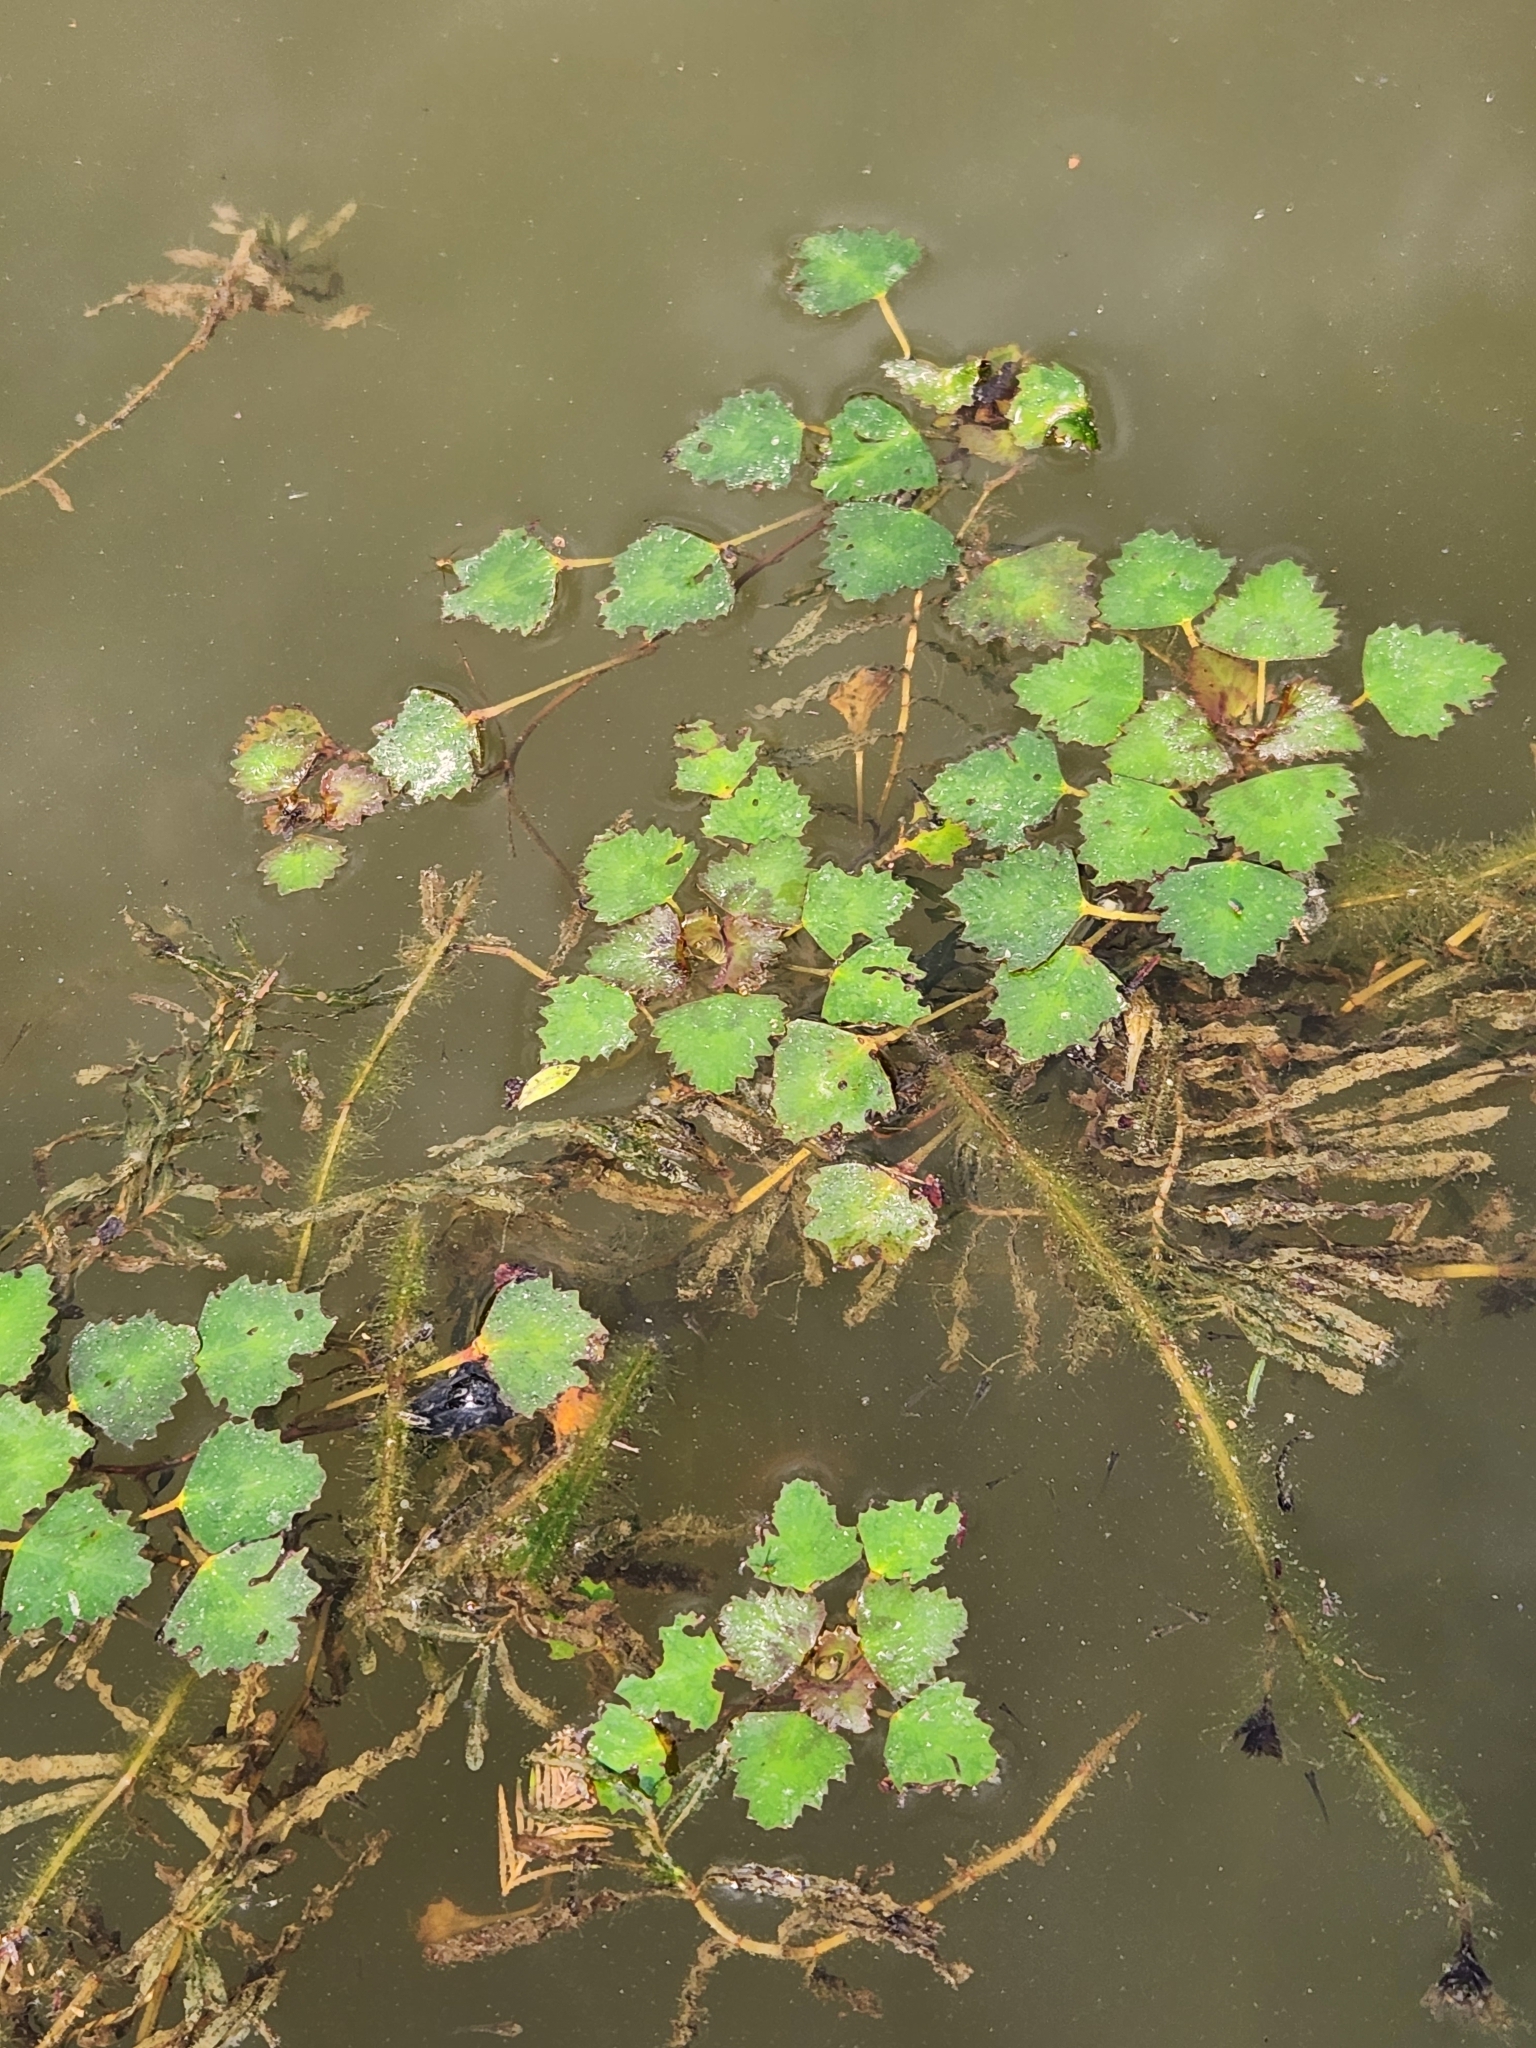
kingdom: Plantae
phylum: Tracheophyta
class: Magnoliopsida
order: Myrtales
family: Lythraceae
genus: Trapa
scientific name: Trapa natans
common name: Water chestnut
